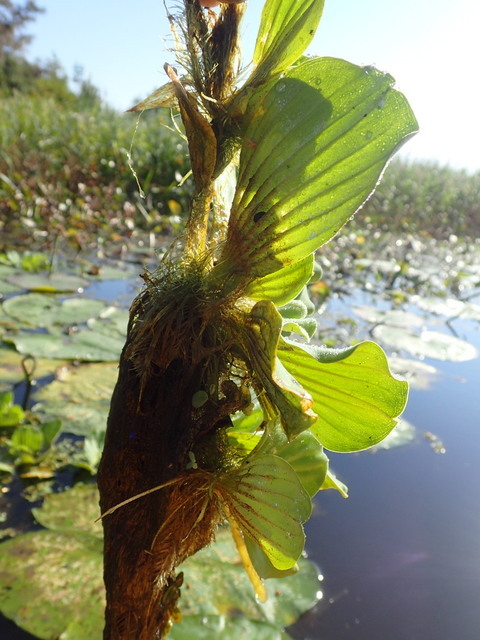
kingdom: Plantae
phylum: Tracheophyta
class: Liliopsida
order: Alismatales
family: Araceae
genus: Pistia
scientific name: Pistia stratiotes
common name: Water lettuce
